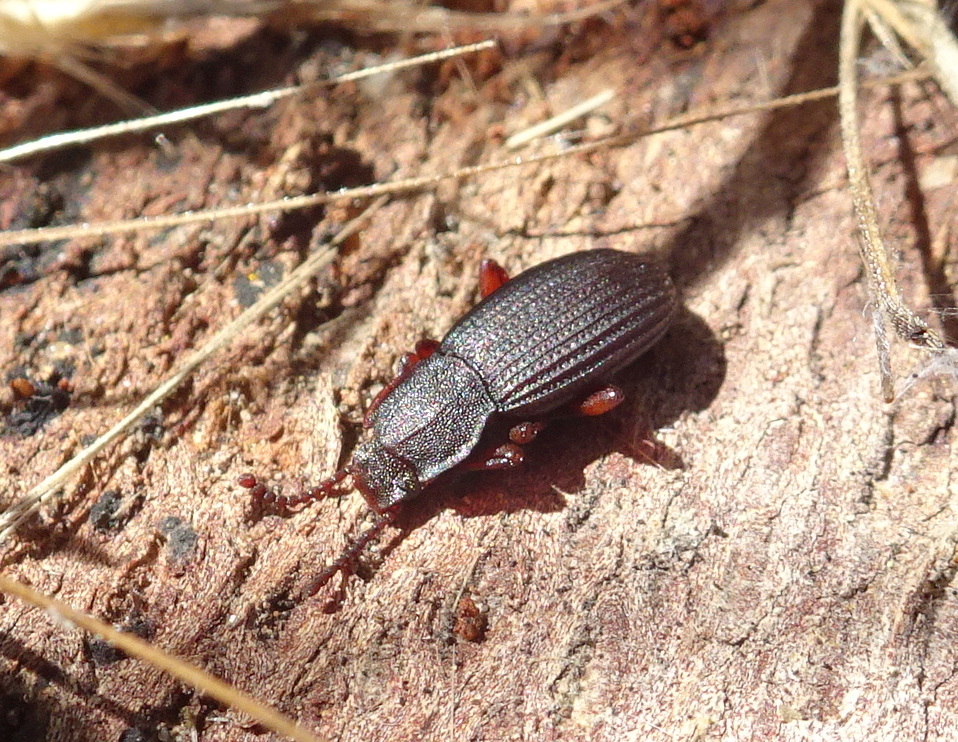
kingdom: Animalia
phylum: Arthropoda
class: Insecta
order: Coleoptera
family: Tenebrionidae
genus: Eulabis
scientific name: Eulabis bicarinata
